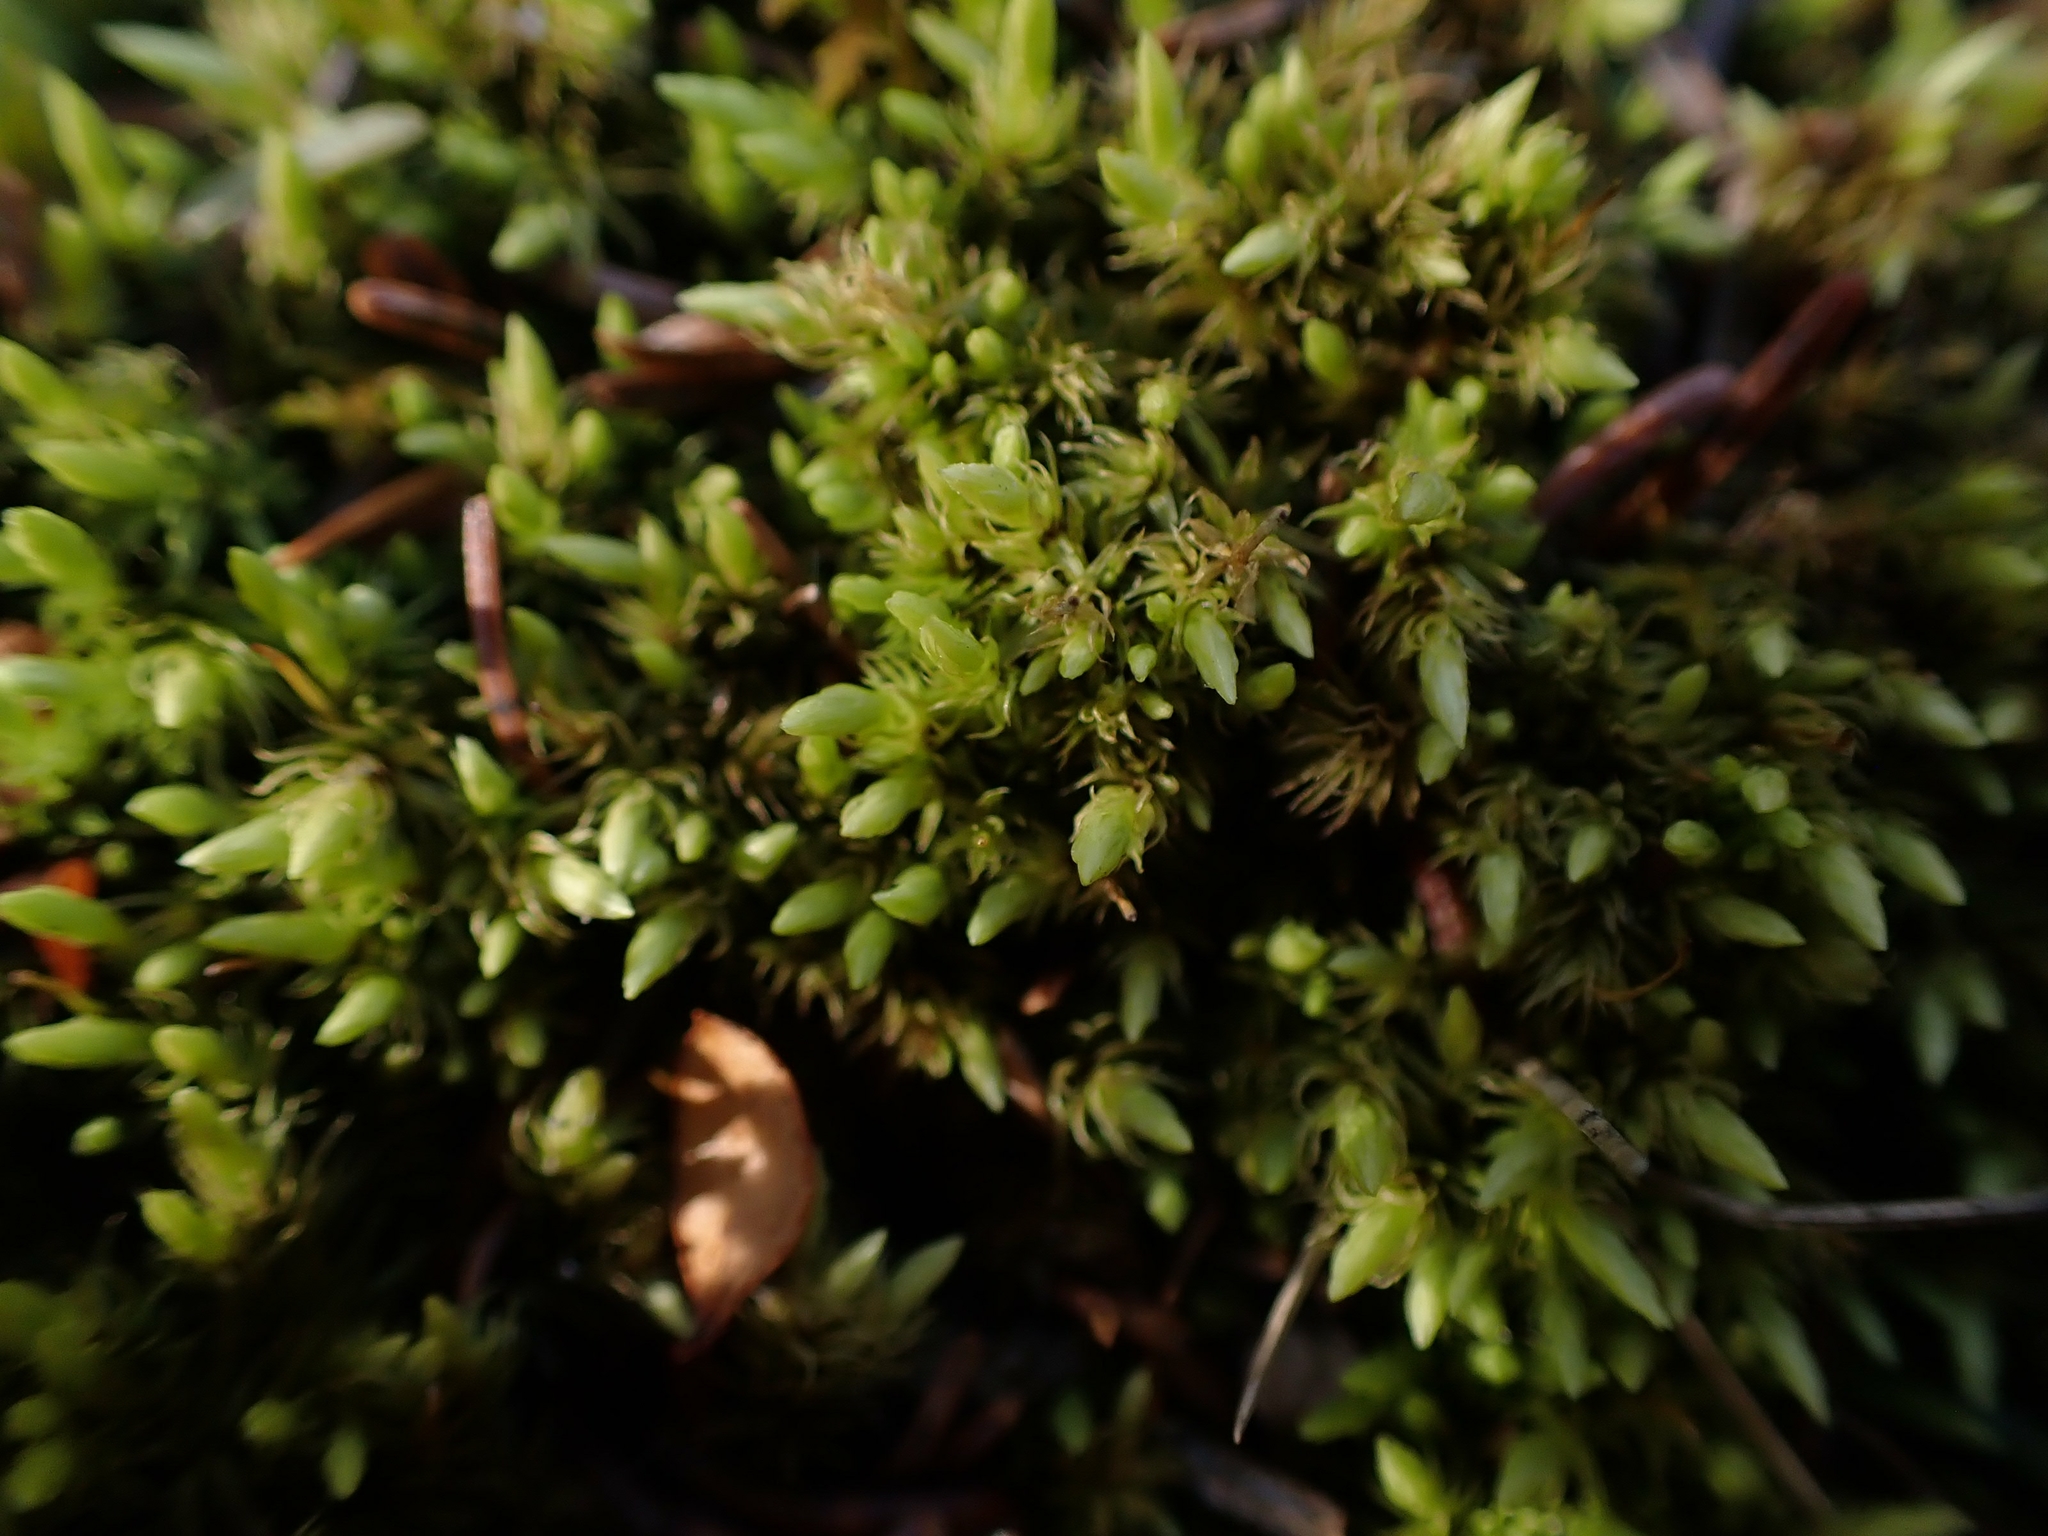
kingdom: Plantae
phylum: Bryophyta
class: Bryopsida
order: Aulacomniales
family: Aulacomniaceae
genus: Aulacomnium
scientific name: Aulacomnium palustre
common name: Bog groove-moss
